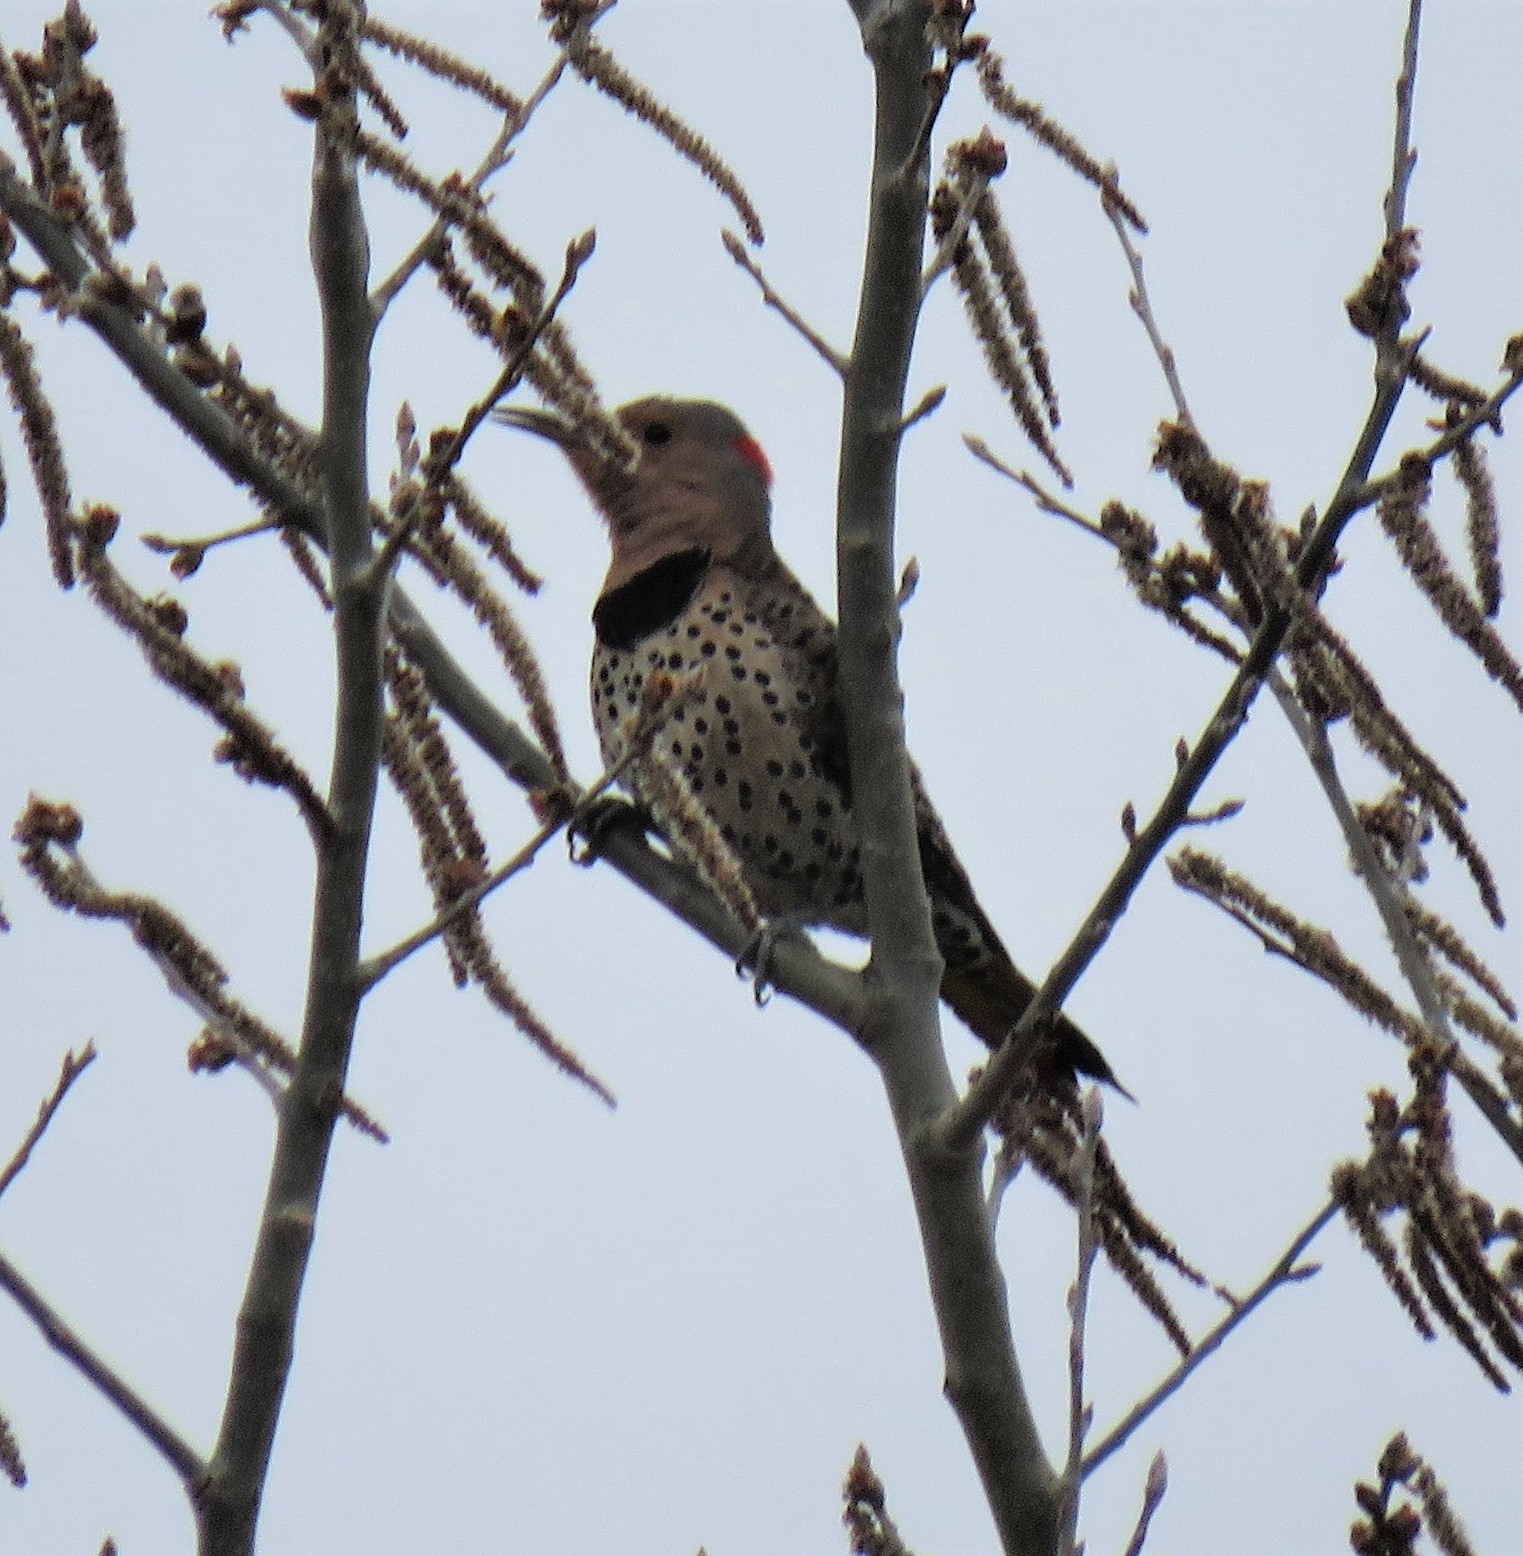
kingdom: Animalia
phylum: Chordata
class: Aves
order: Piciformes
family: Picidae
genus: Colaptes
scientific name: Colaptes auratus
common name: Northern flicker
